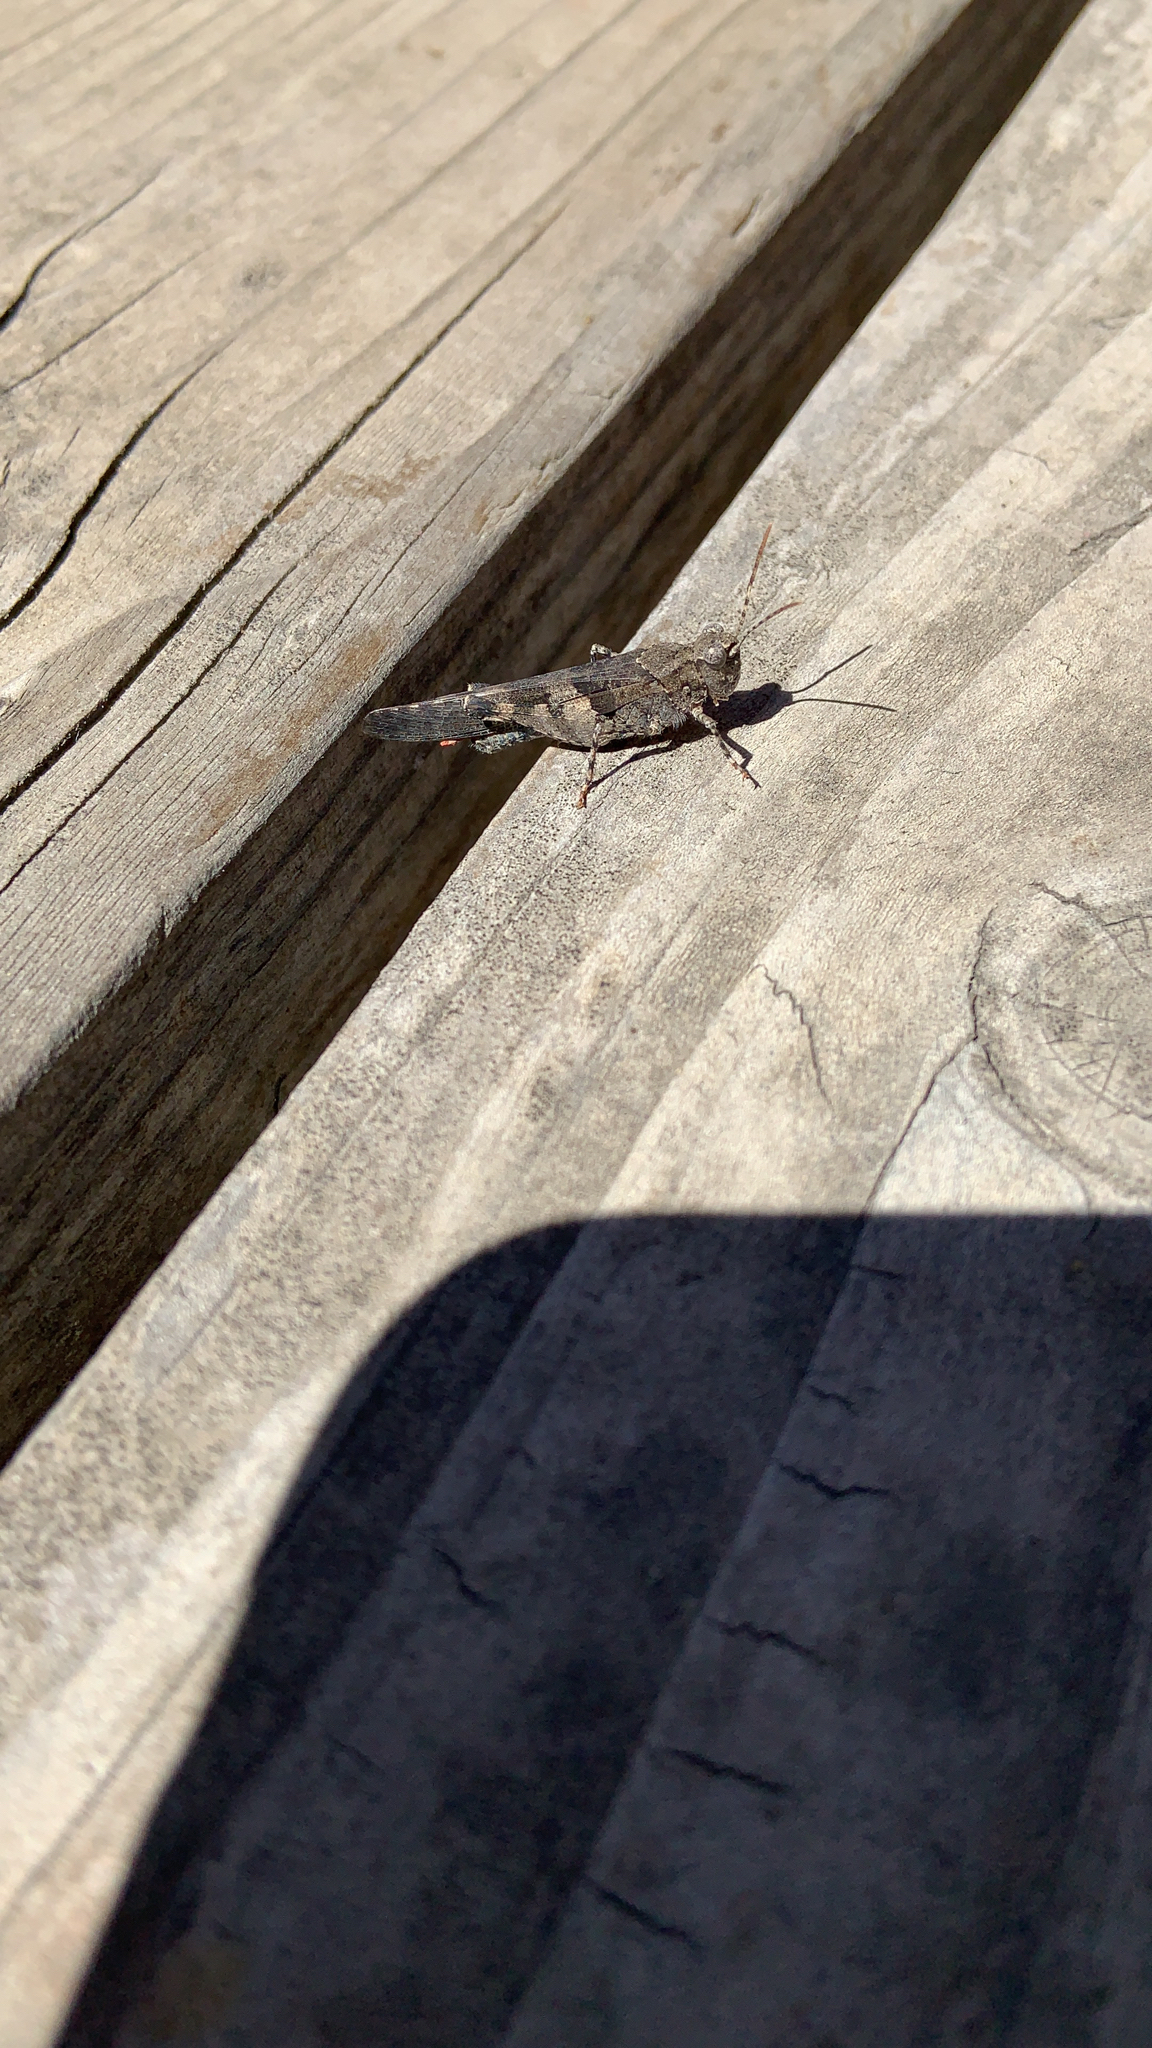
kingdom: Animalia
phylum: Arthropoda
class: Insecta
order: Orthoptera
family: Acrididae
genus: Trimerotropis
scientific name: Trimerotropis fontana
